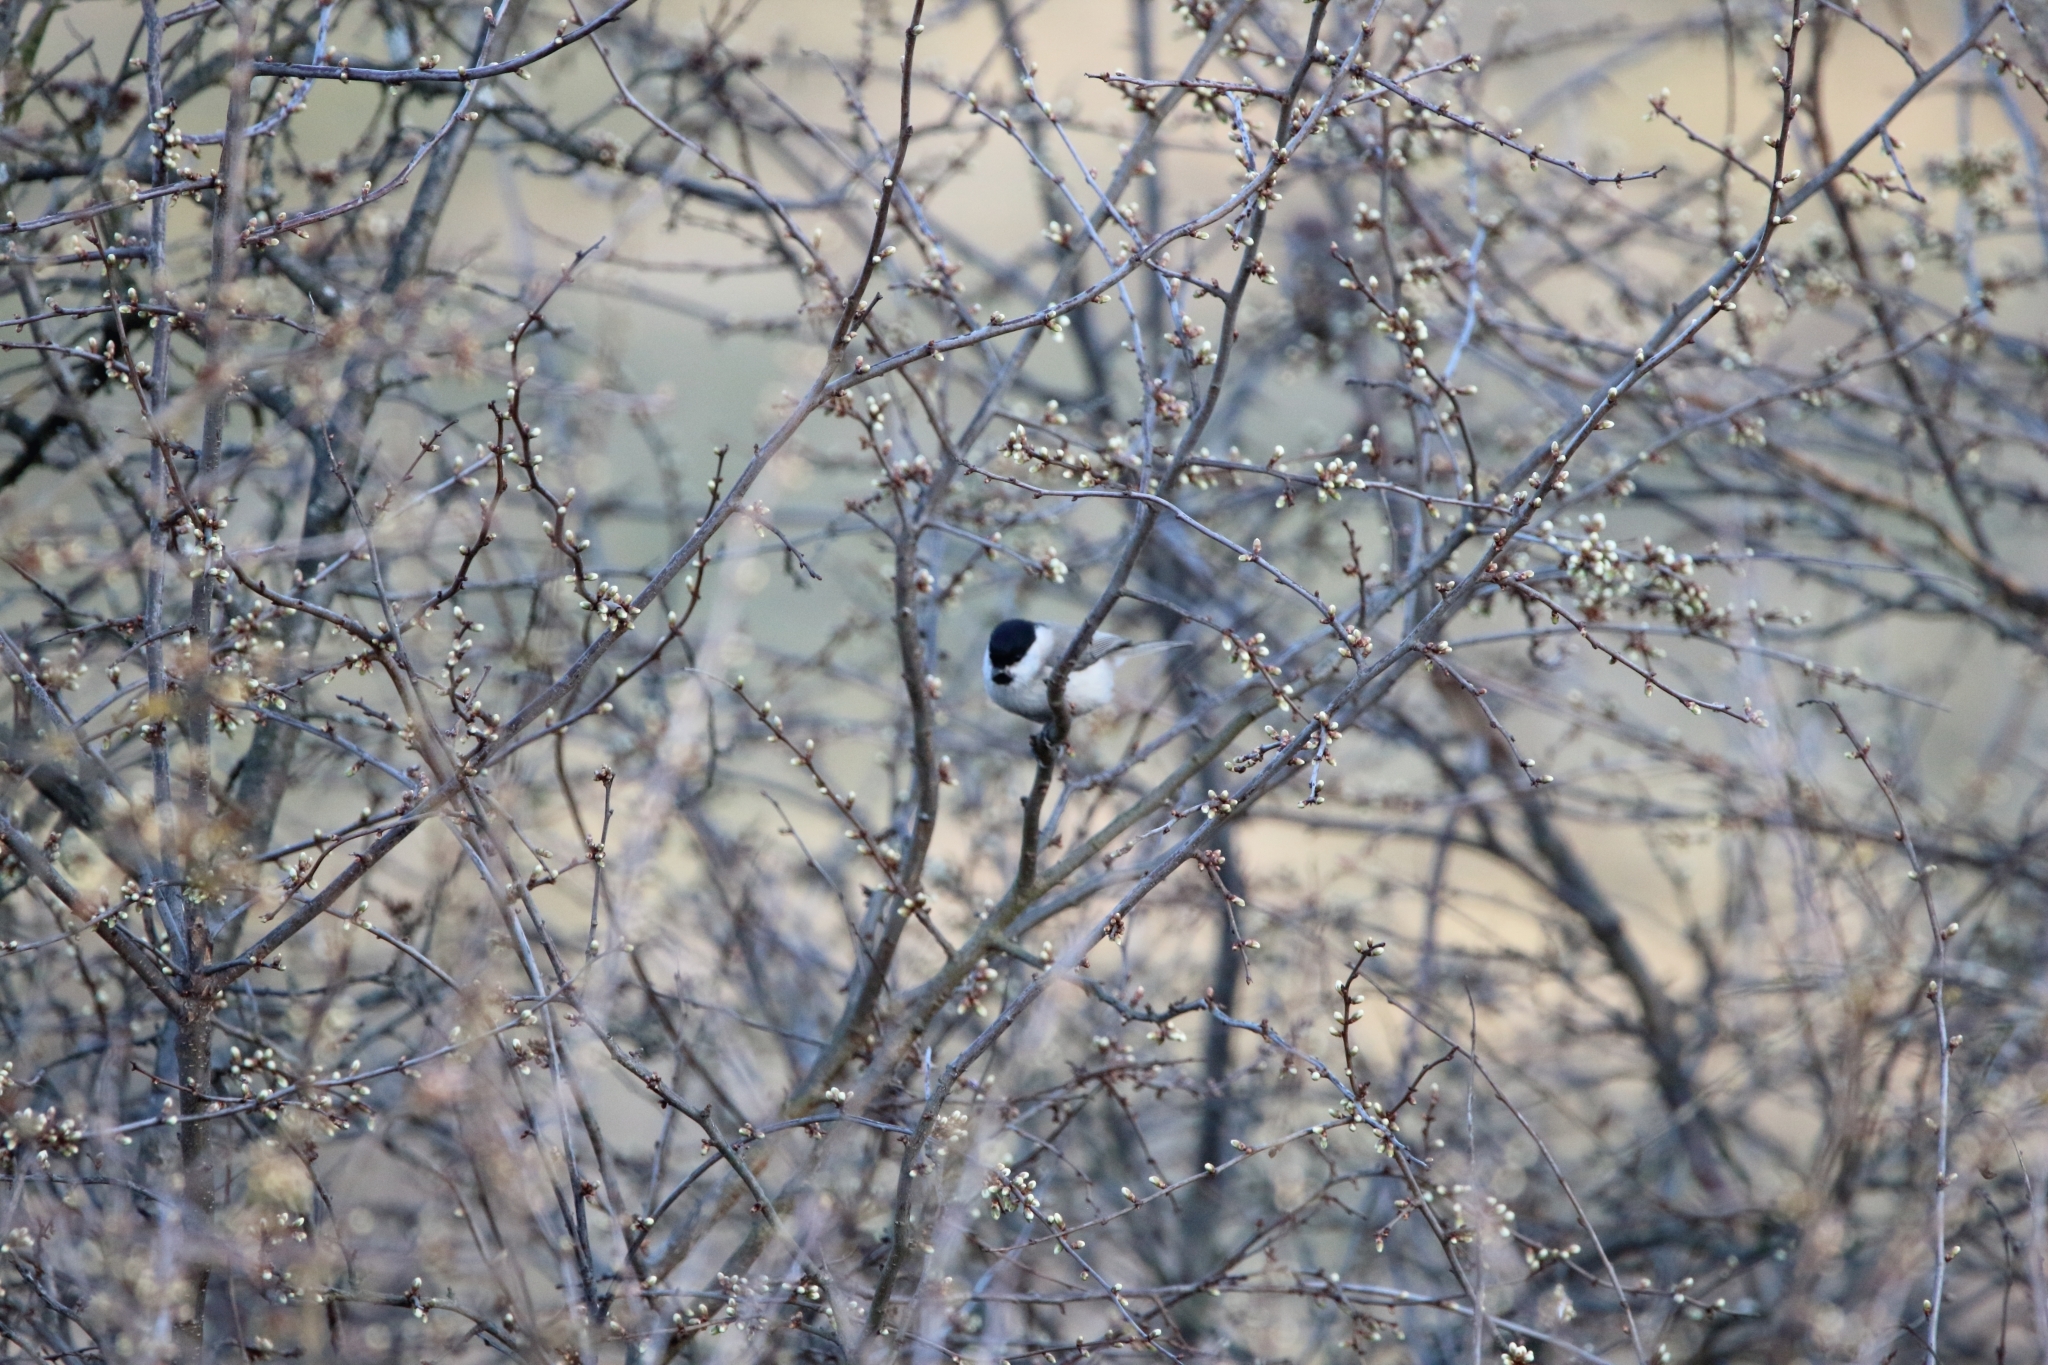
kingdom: Animalia
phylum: Chordata
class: Aves
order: Passeriformes
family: Paridae
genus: Poecile
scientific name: Poecile palustris
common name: Marsh tit
